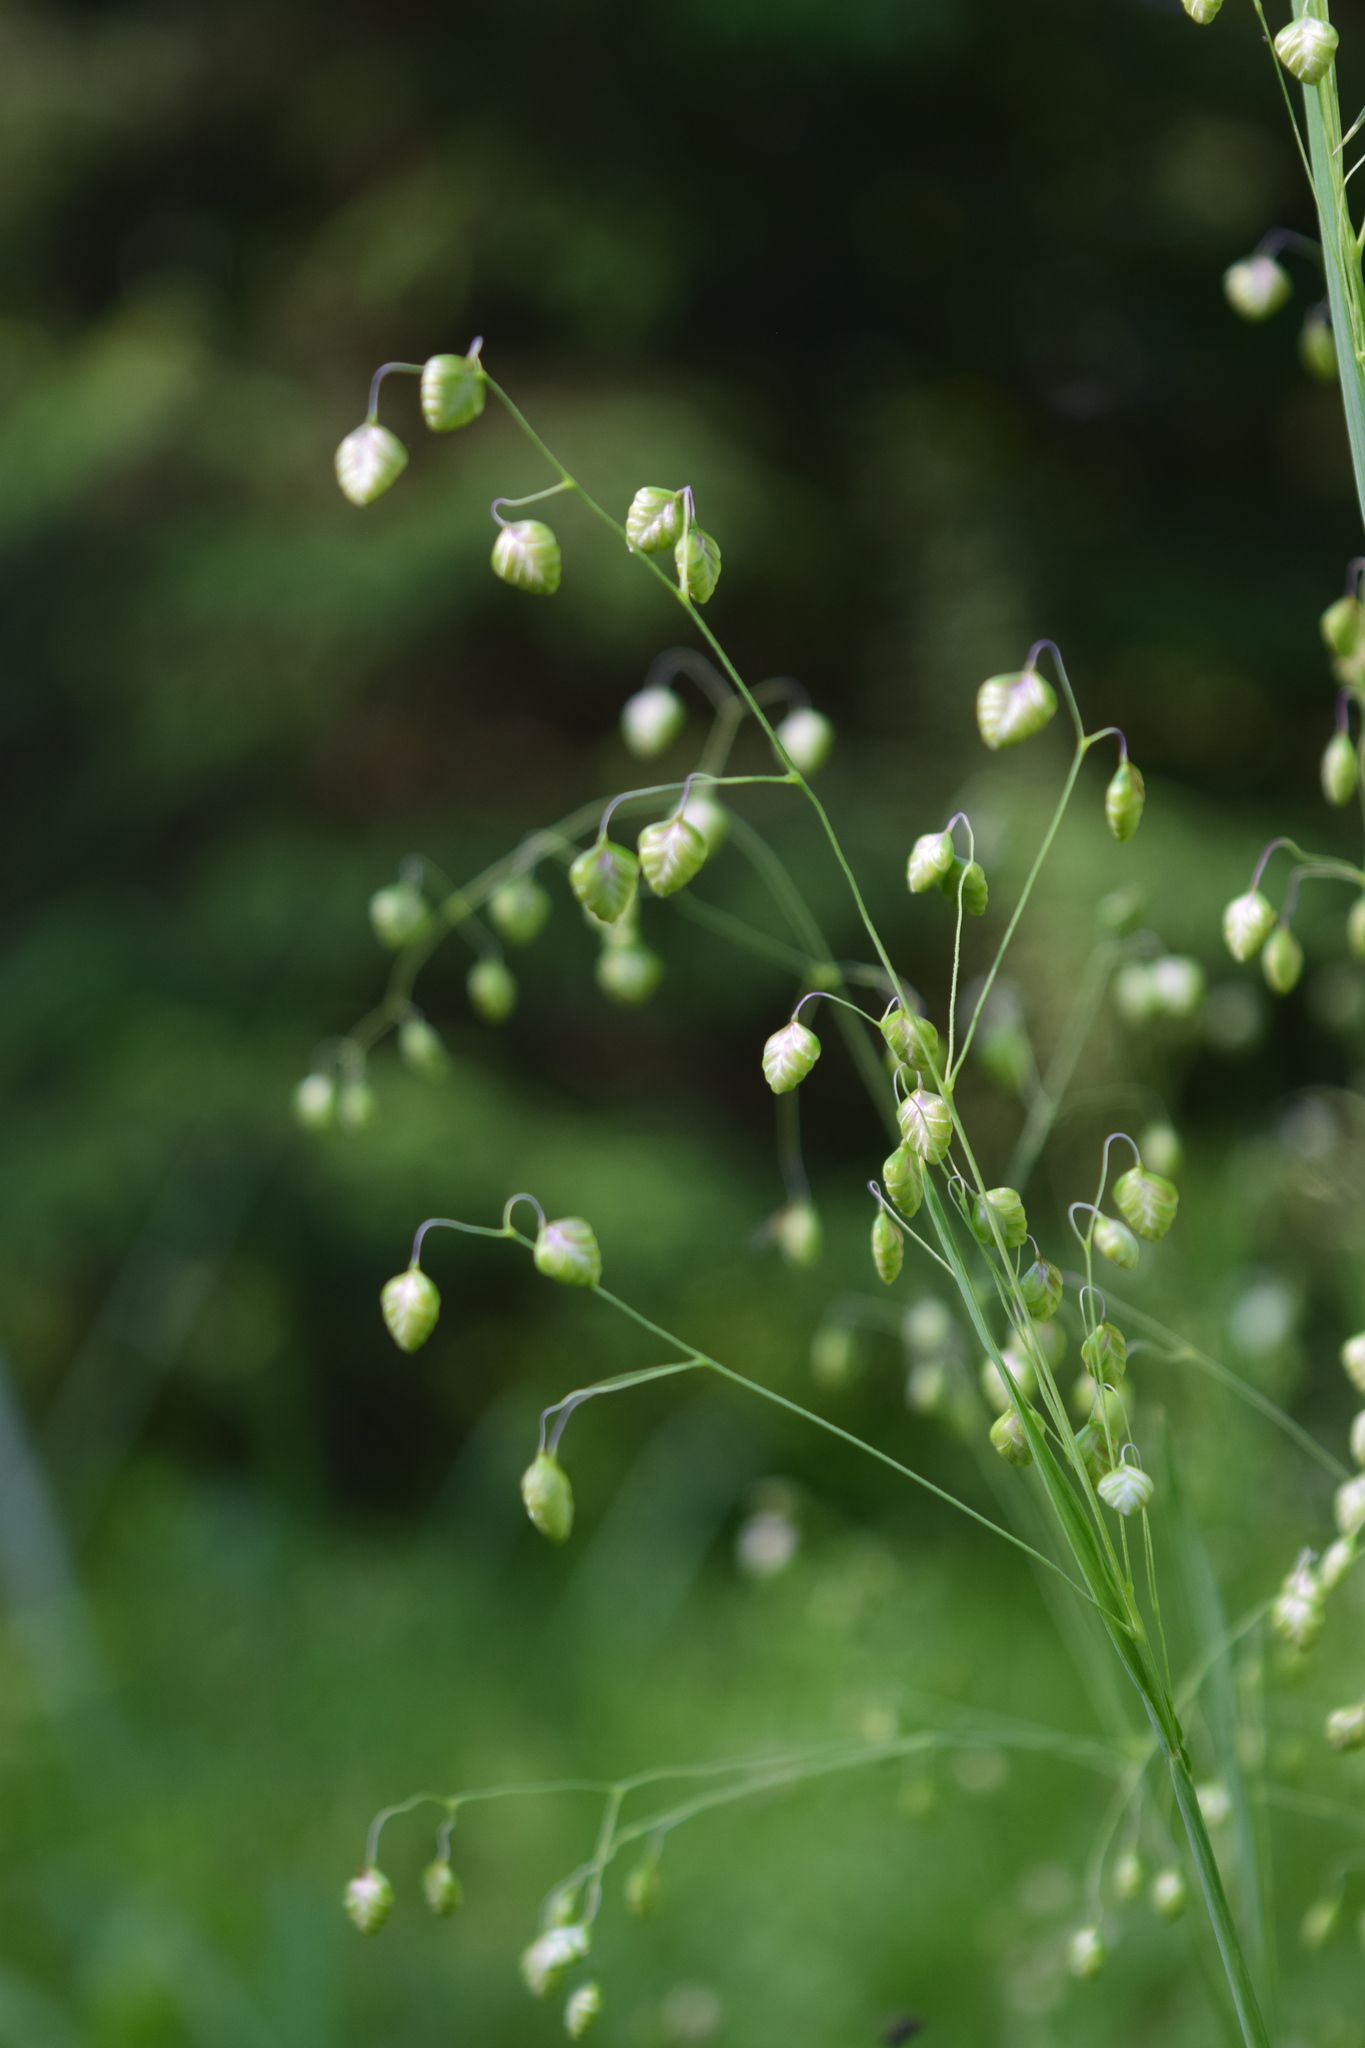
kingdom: Plantae
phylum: Tracheophyta
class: Liliopsida
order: Poales
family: Poaceae
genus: Briza
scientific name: Briza media
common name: Quaking grass
